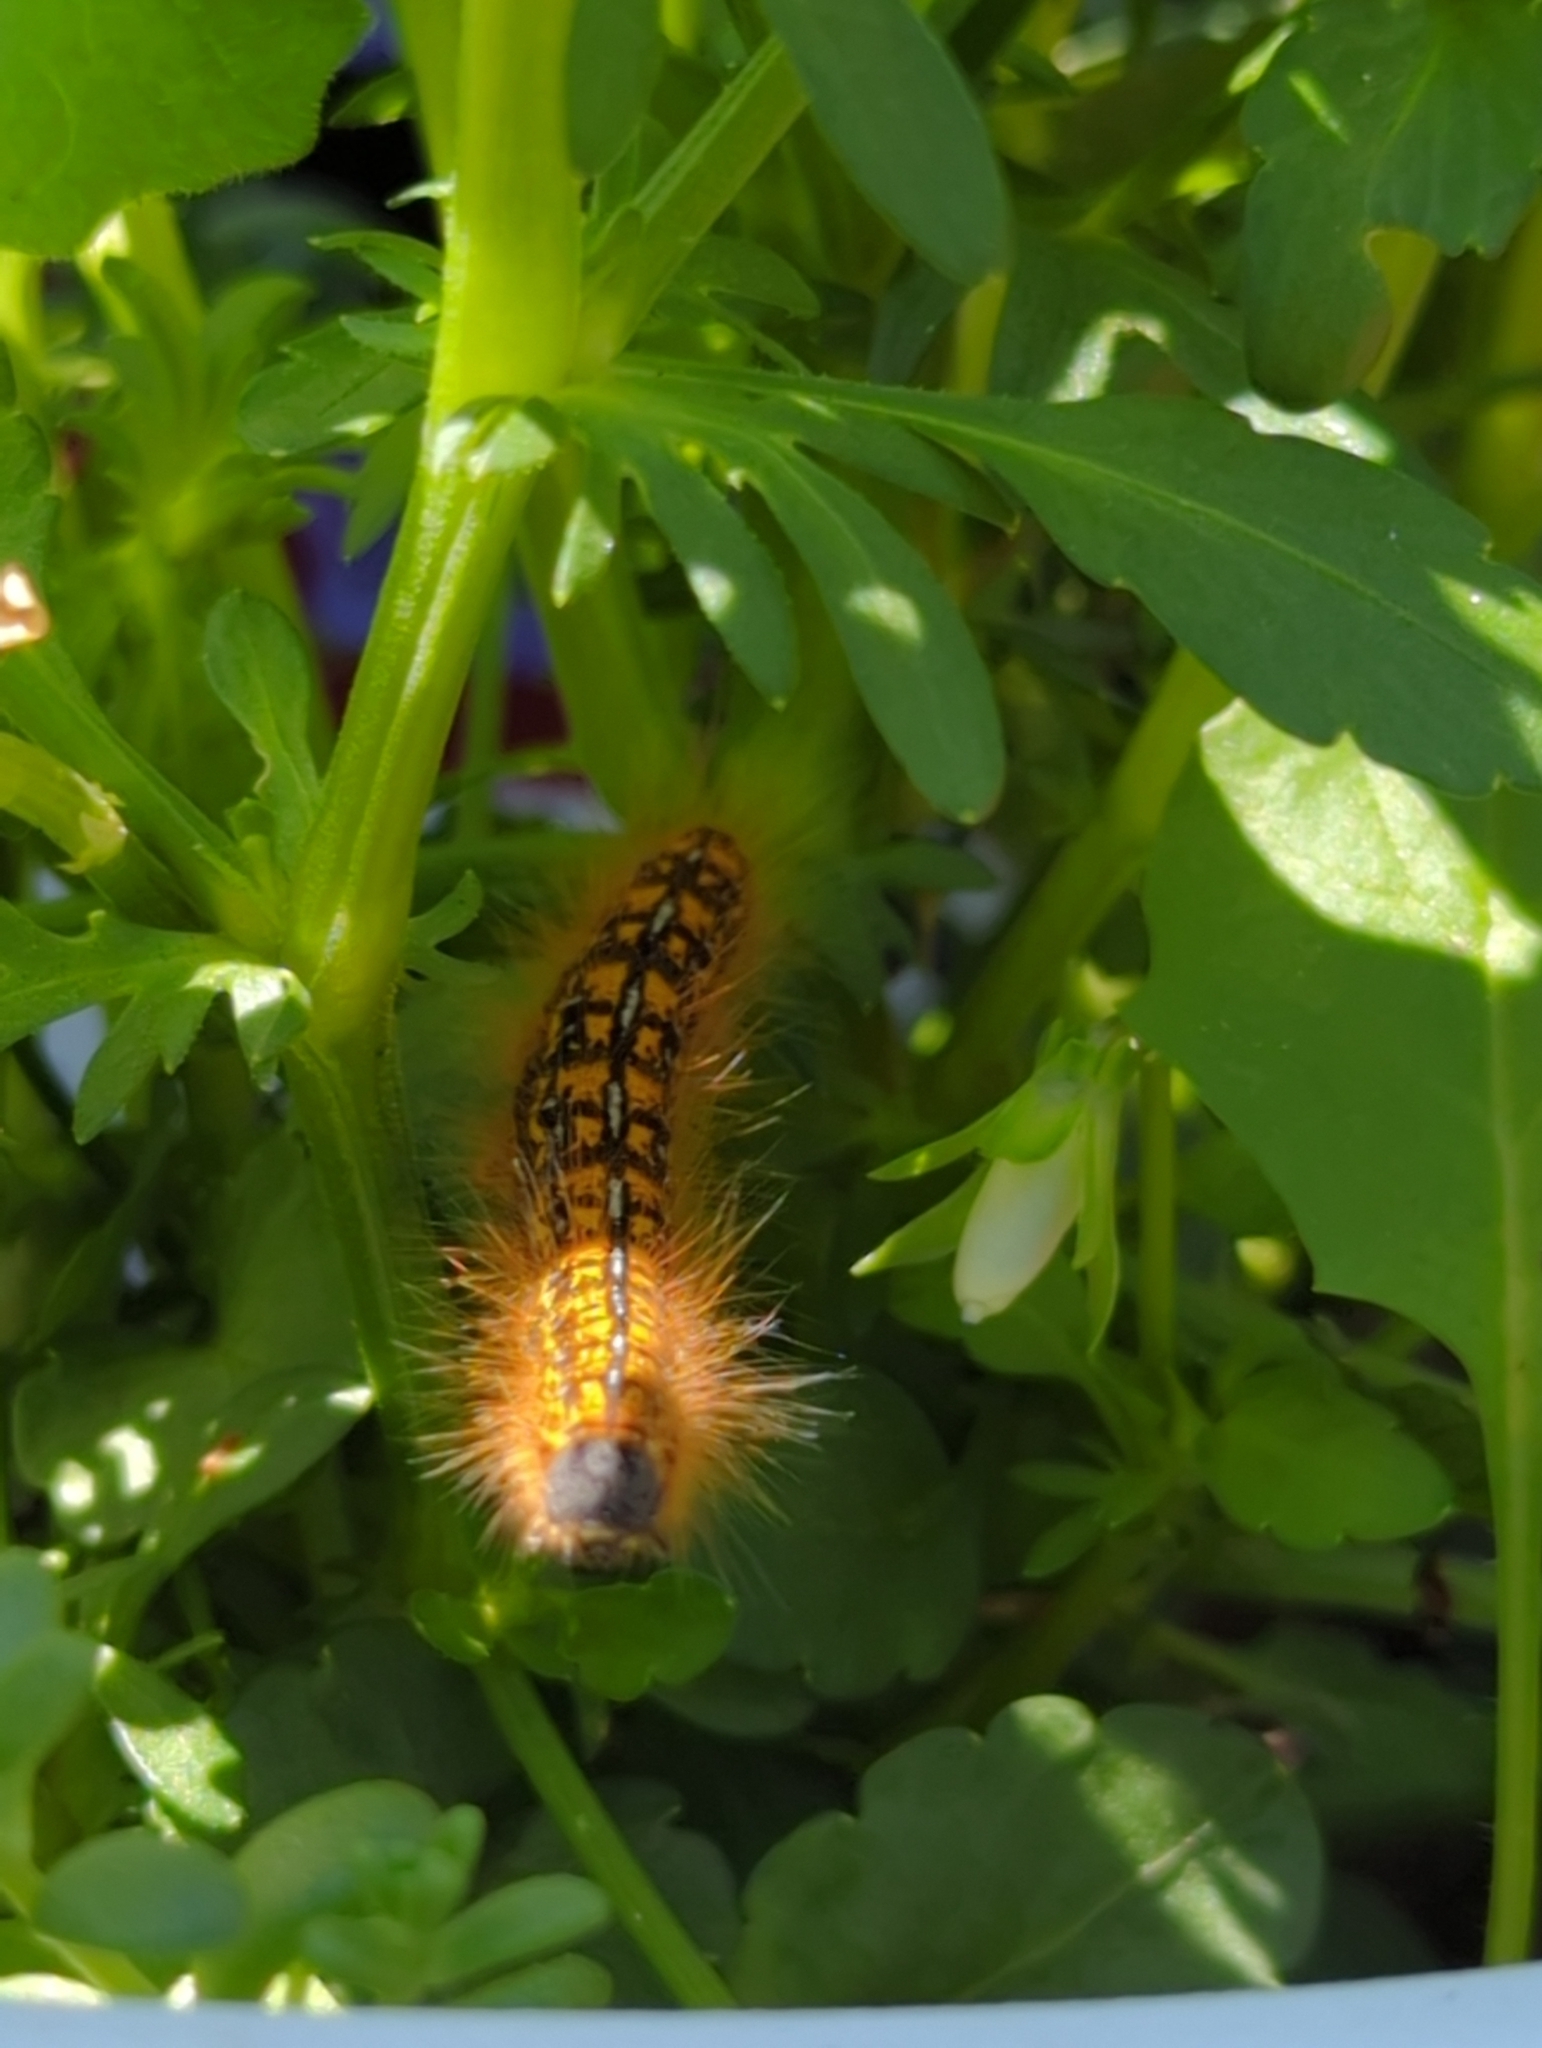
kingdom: Animalia
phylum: Arthropoda
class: Insecta
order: Lepidoptera
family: Lasiocampidae
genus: Malacosoma
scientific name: Malacosoma californica
